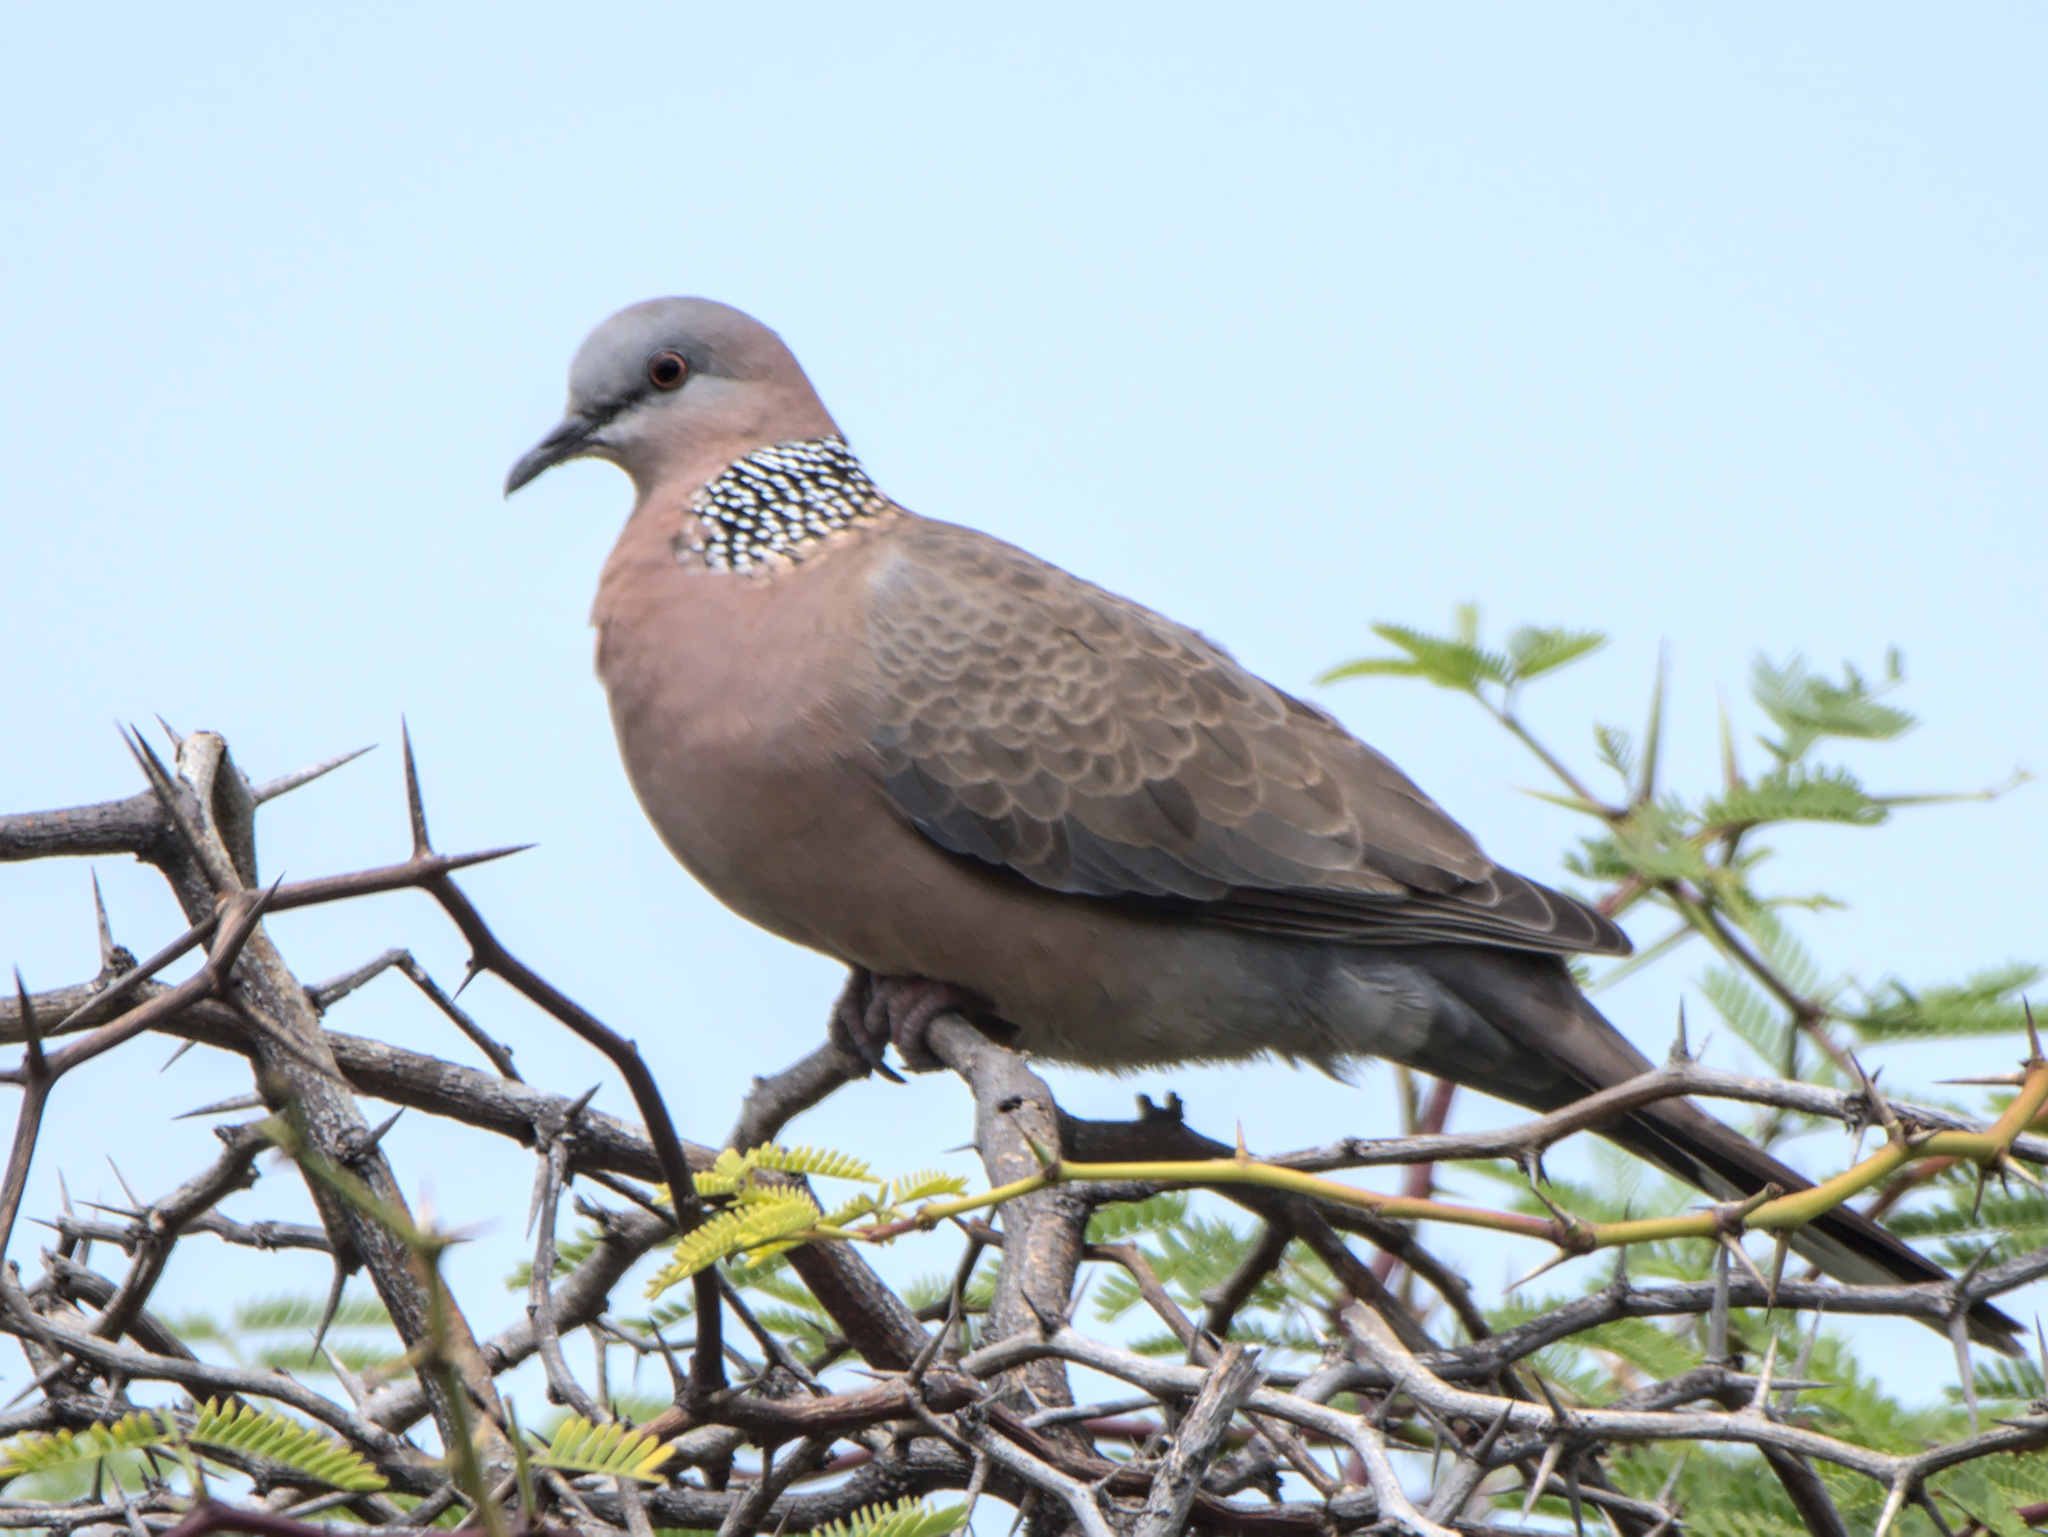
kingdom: Animalia
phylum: Chordata
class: Aves
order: Columbiformes
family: Columbidae
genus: Spilopelia
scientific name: Spilopelia chinensis
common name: Spotted dove
